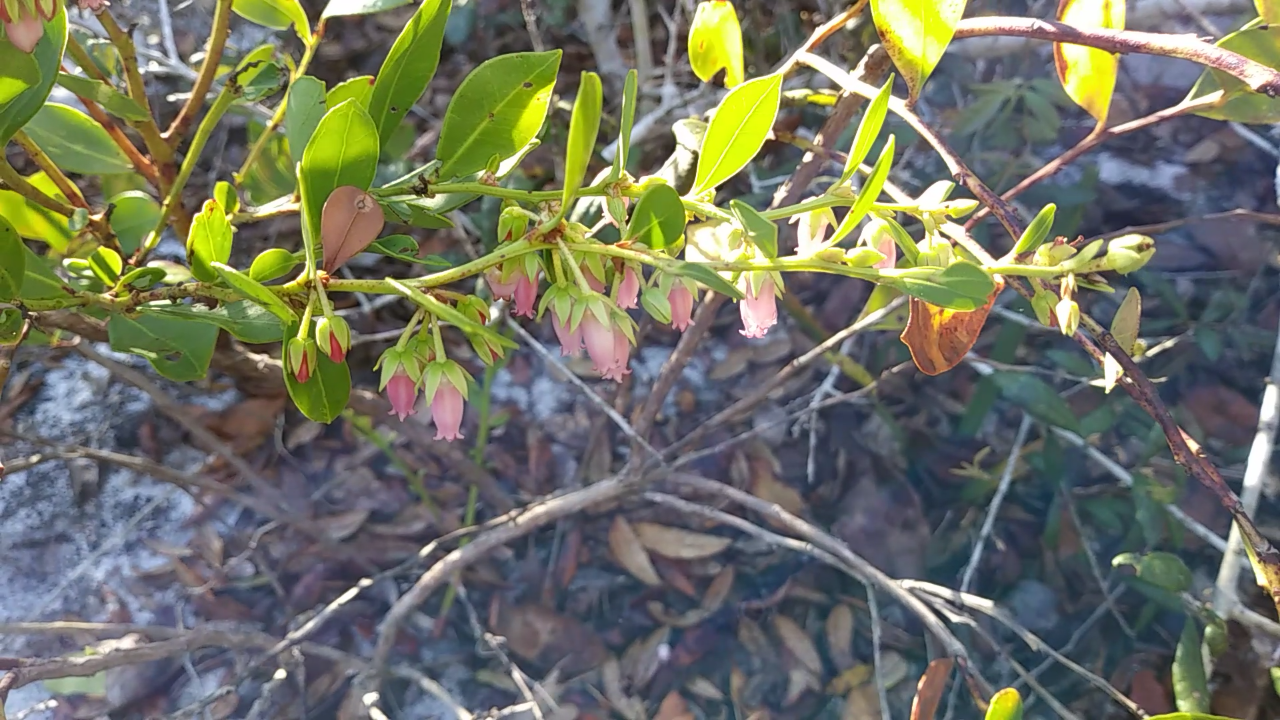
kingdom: Plantae
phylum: Tracheophyta
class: Magnoliopsida
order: Ericales
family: Ericaceae
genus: Lyonia
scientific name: Lyonia lucida
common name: Fetterbush
